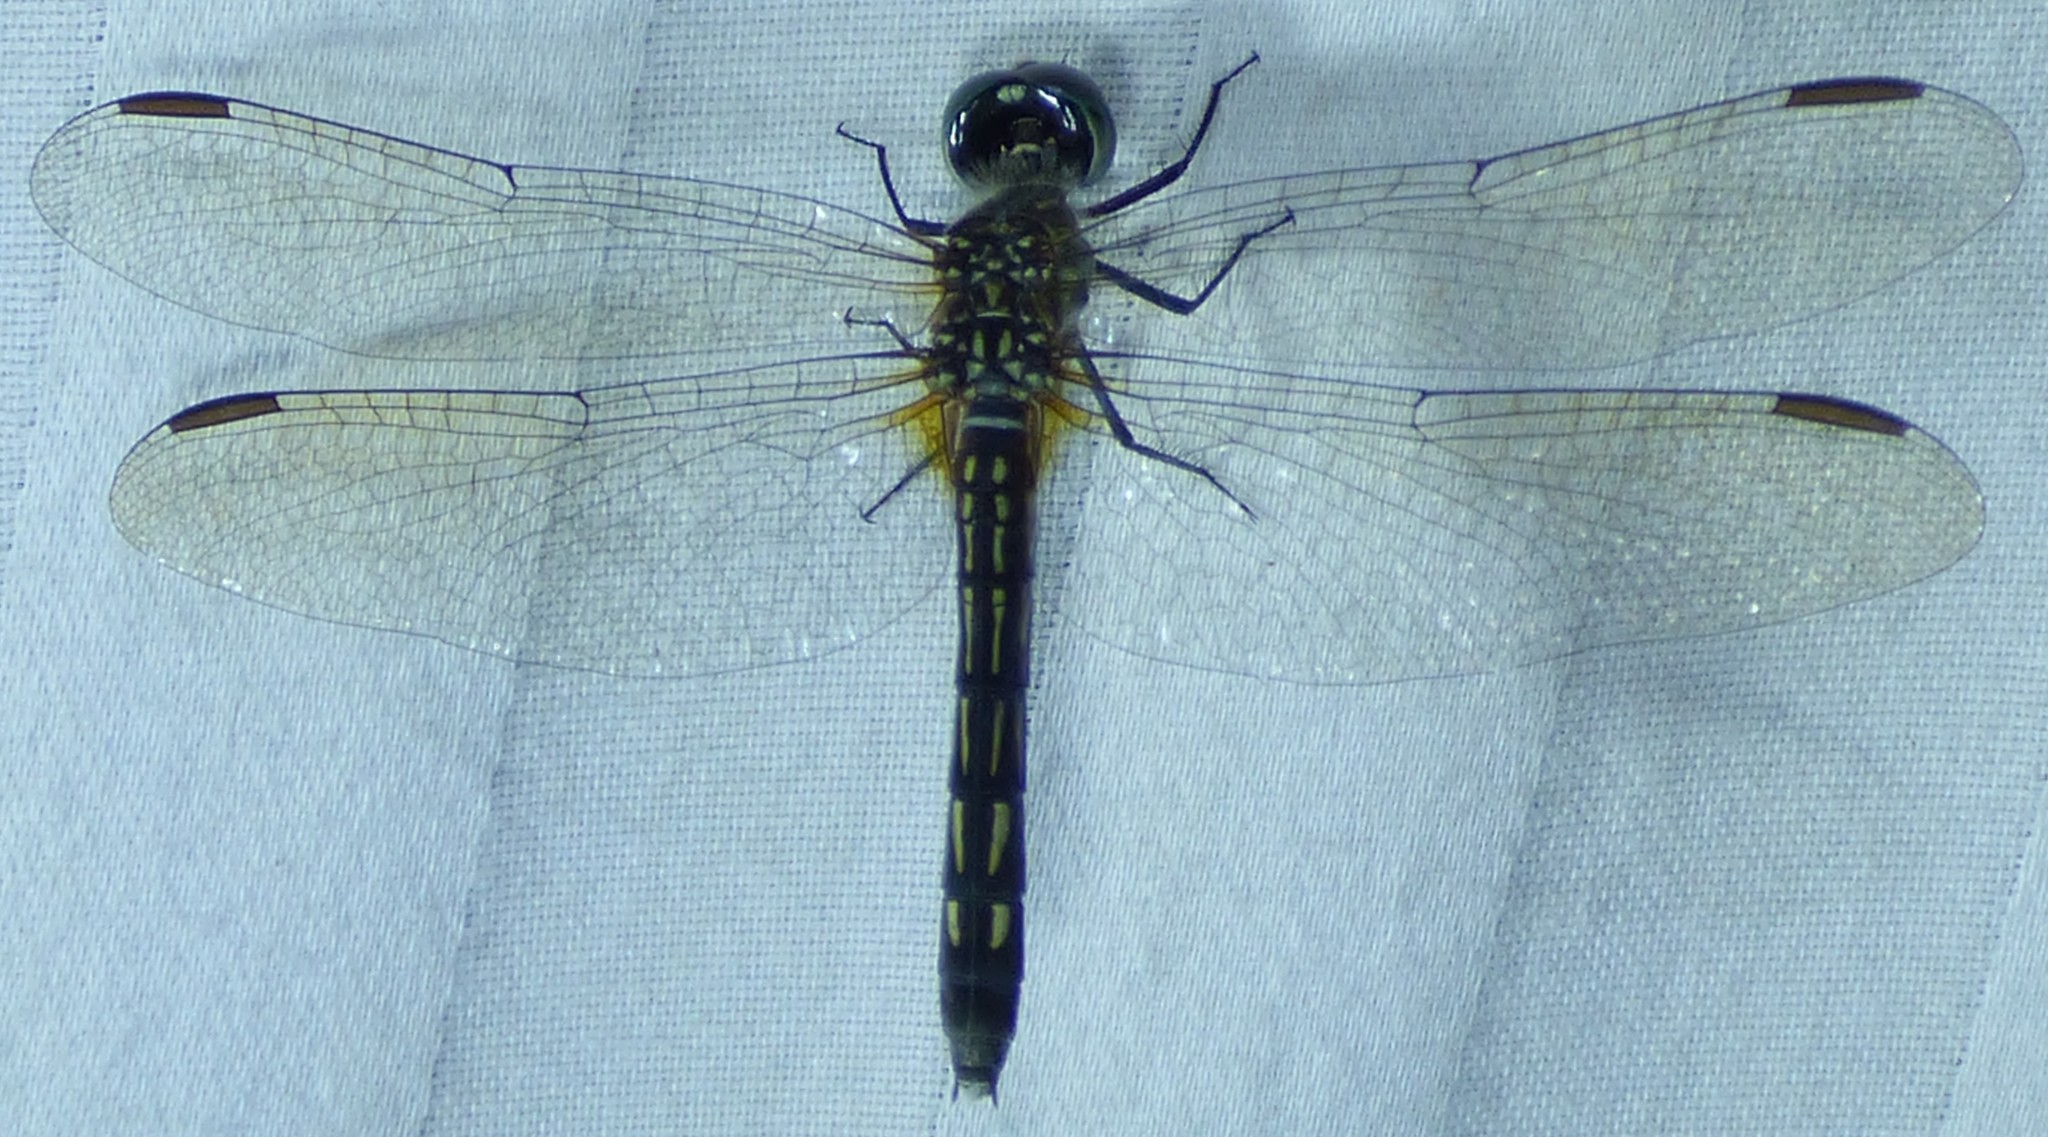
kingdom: Animalia
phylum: Arthropoda
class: Insecta
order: Odonata
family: Libellulidae
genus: Pachydiplax
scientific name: Pachydiplax longipennis
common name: Blue dasher
